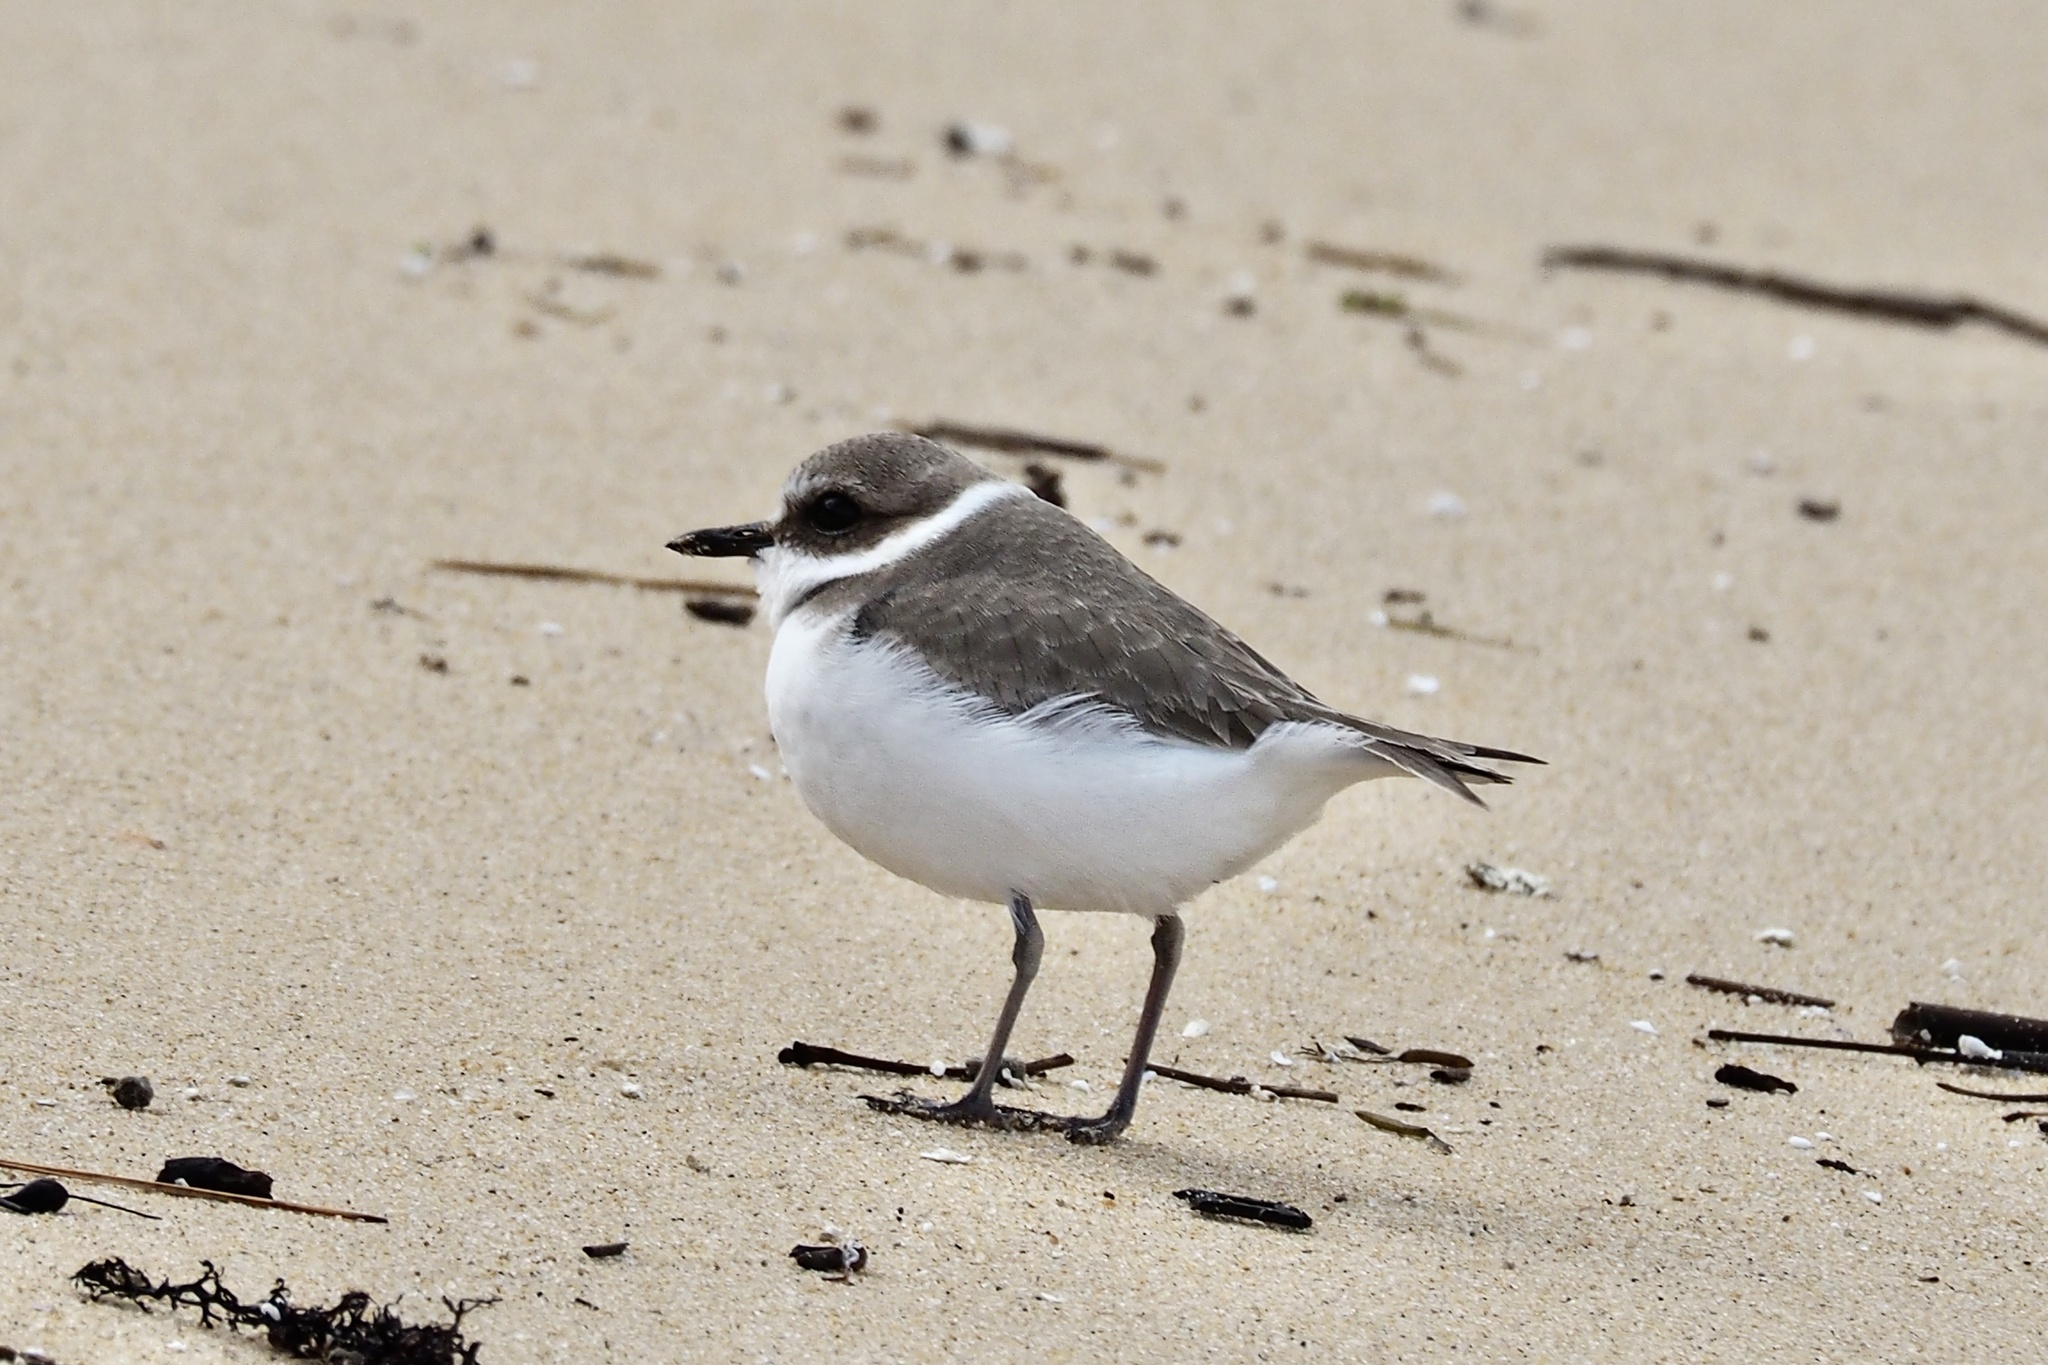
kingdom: Animalia
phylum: Chordata
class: Aves
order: Charadriiformes
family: Charadriidae
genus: Charadrius
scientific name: Charadrius alexandrinus
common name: Kentish plover
